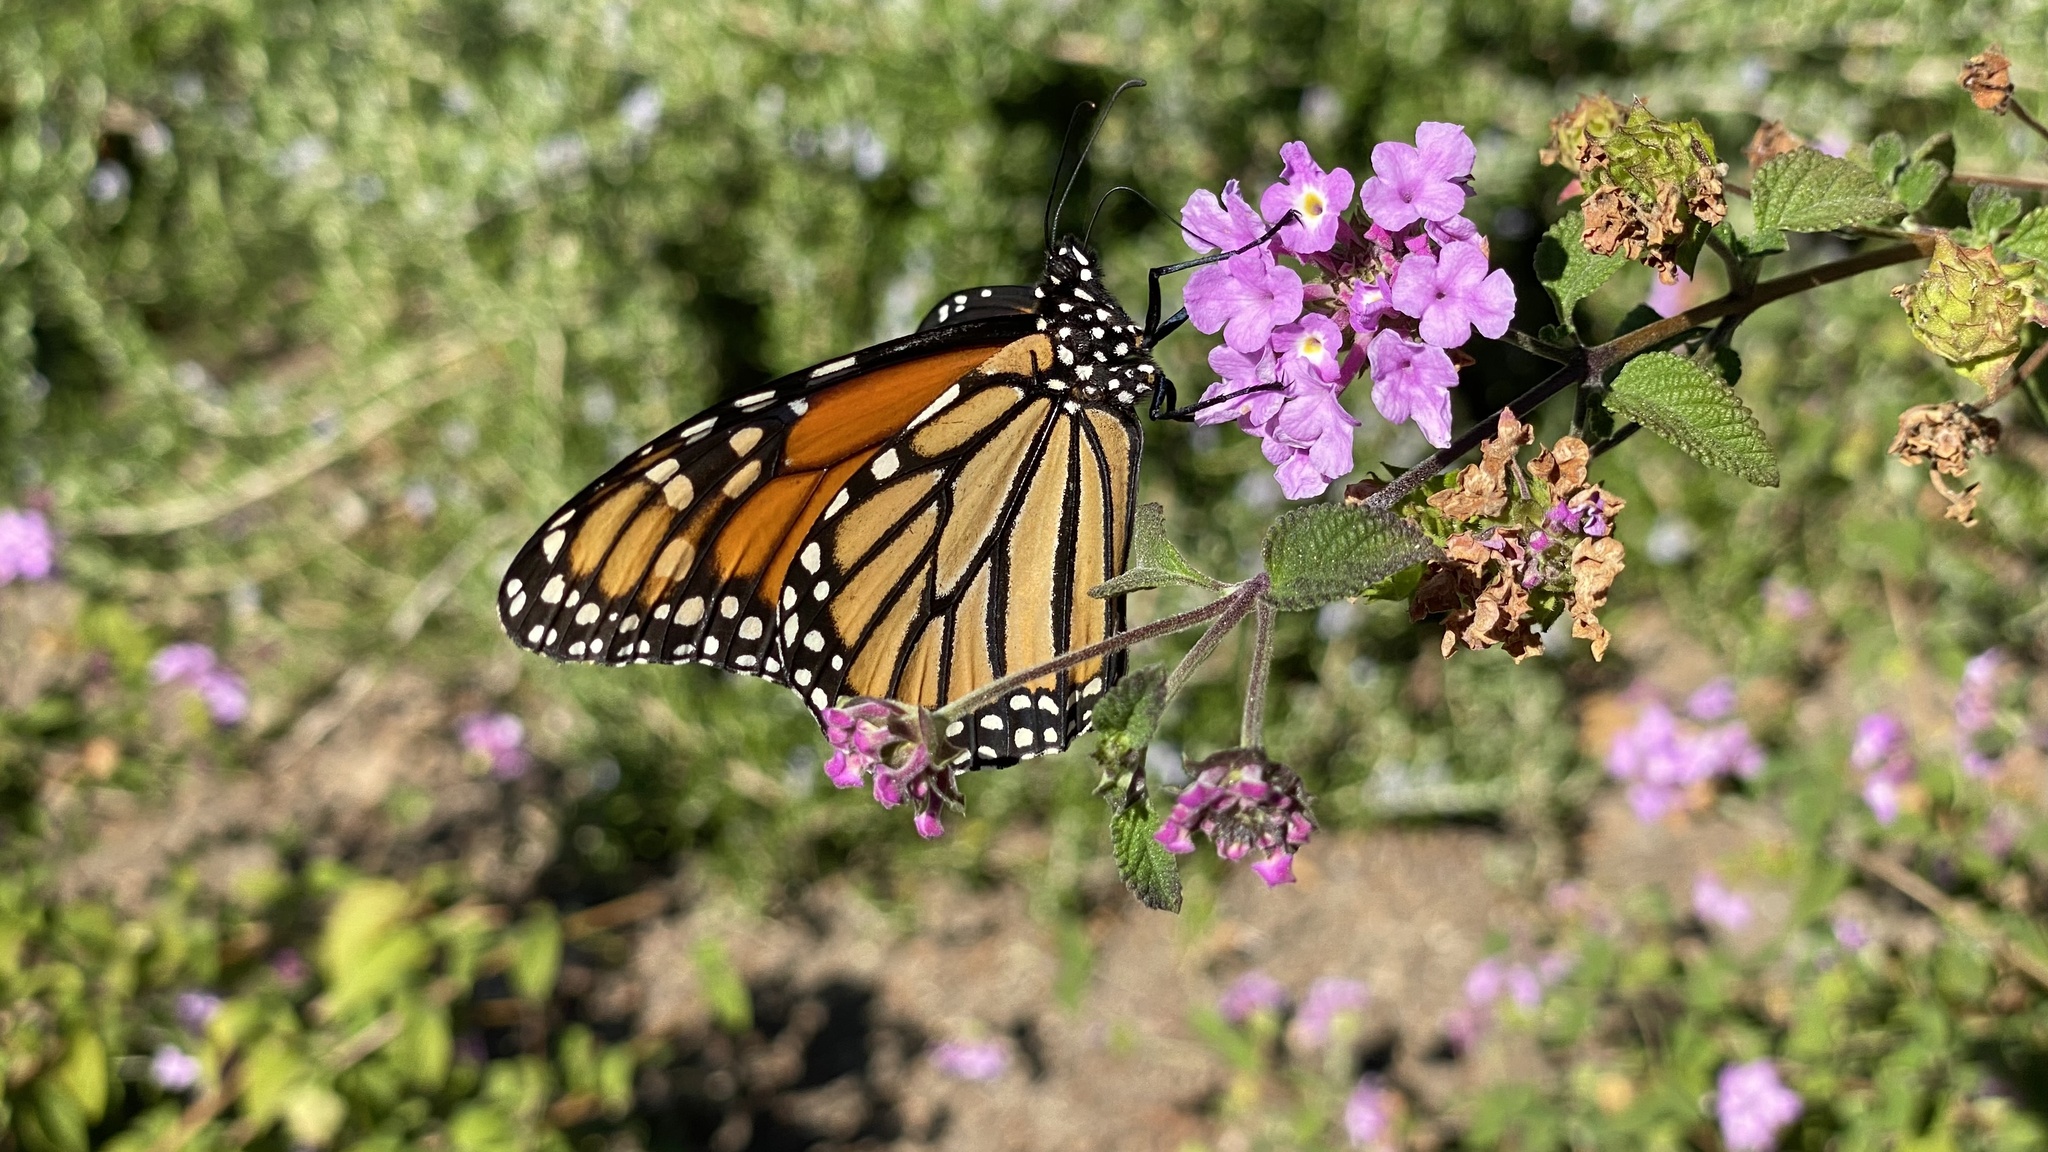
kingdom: Animalia
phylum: Arthropoda
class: Insecta
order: Lepidoptera
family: Nymphalidae
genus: Danaus
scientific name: Danaus plexippus
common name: Monarch
